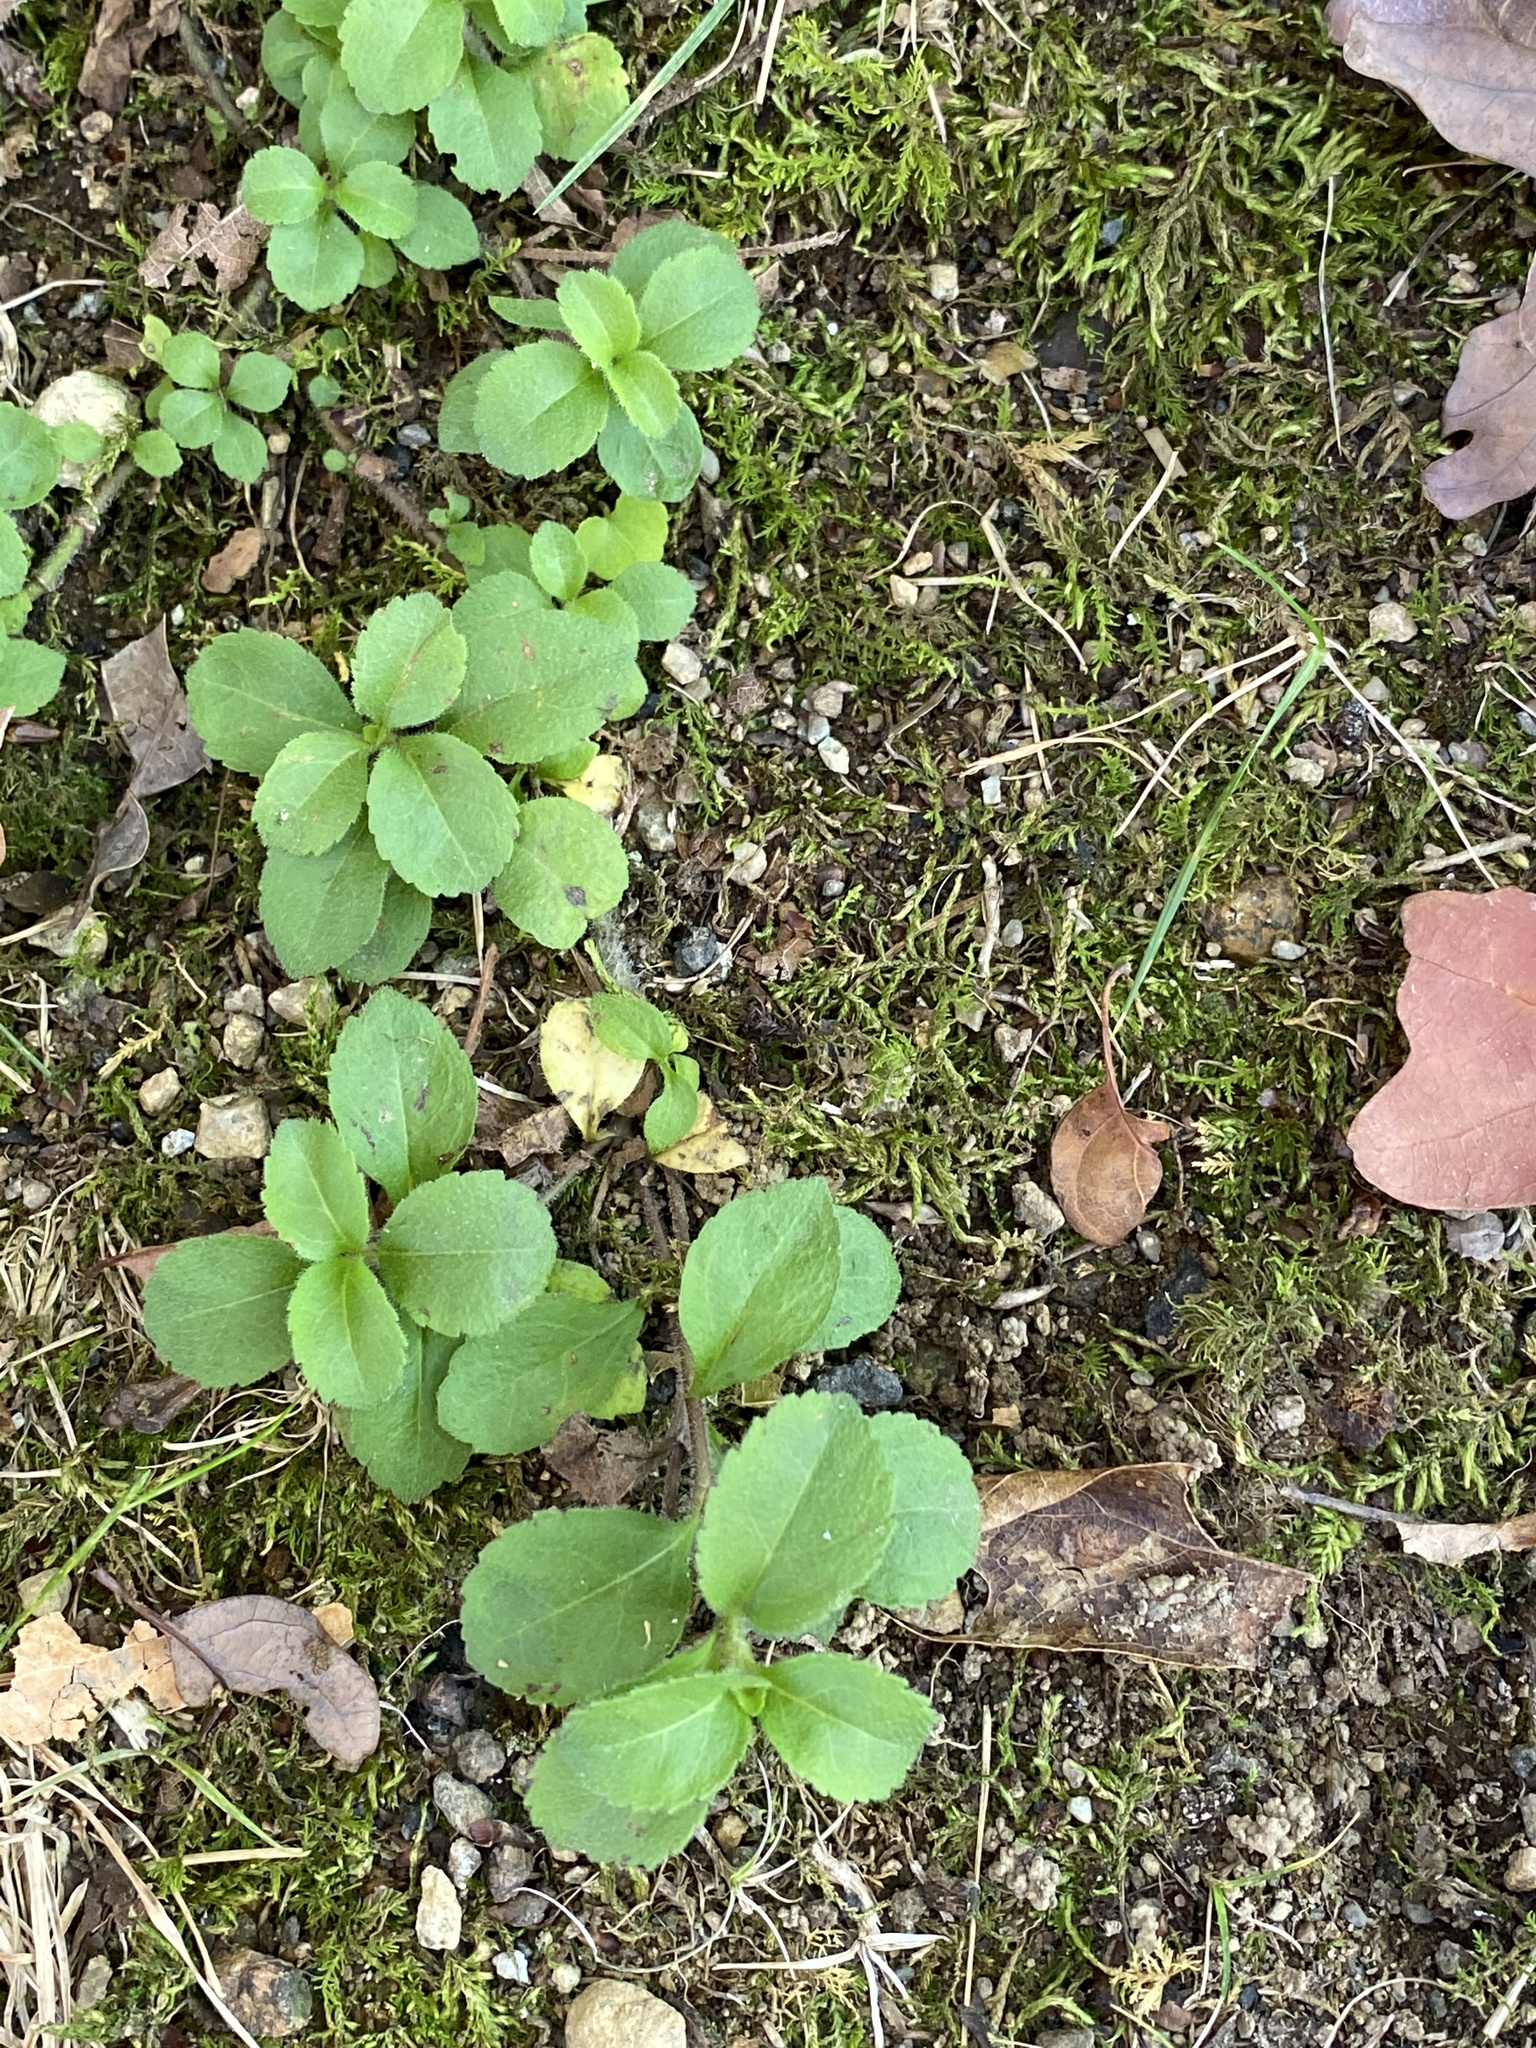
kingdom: Plantae
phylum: Tracheophyta
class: Magnoliopsida
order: Lamiales
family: Plantaginaceae
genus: Veronica
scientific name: Veronica officinalis
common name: Common speedwell
